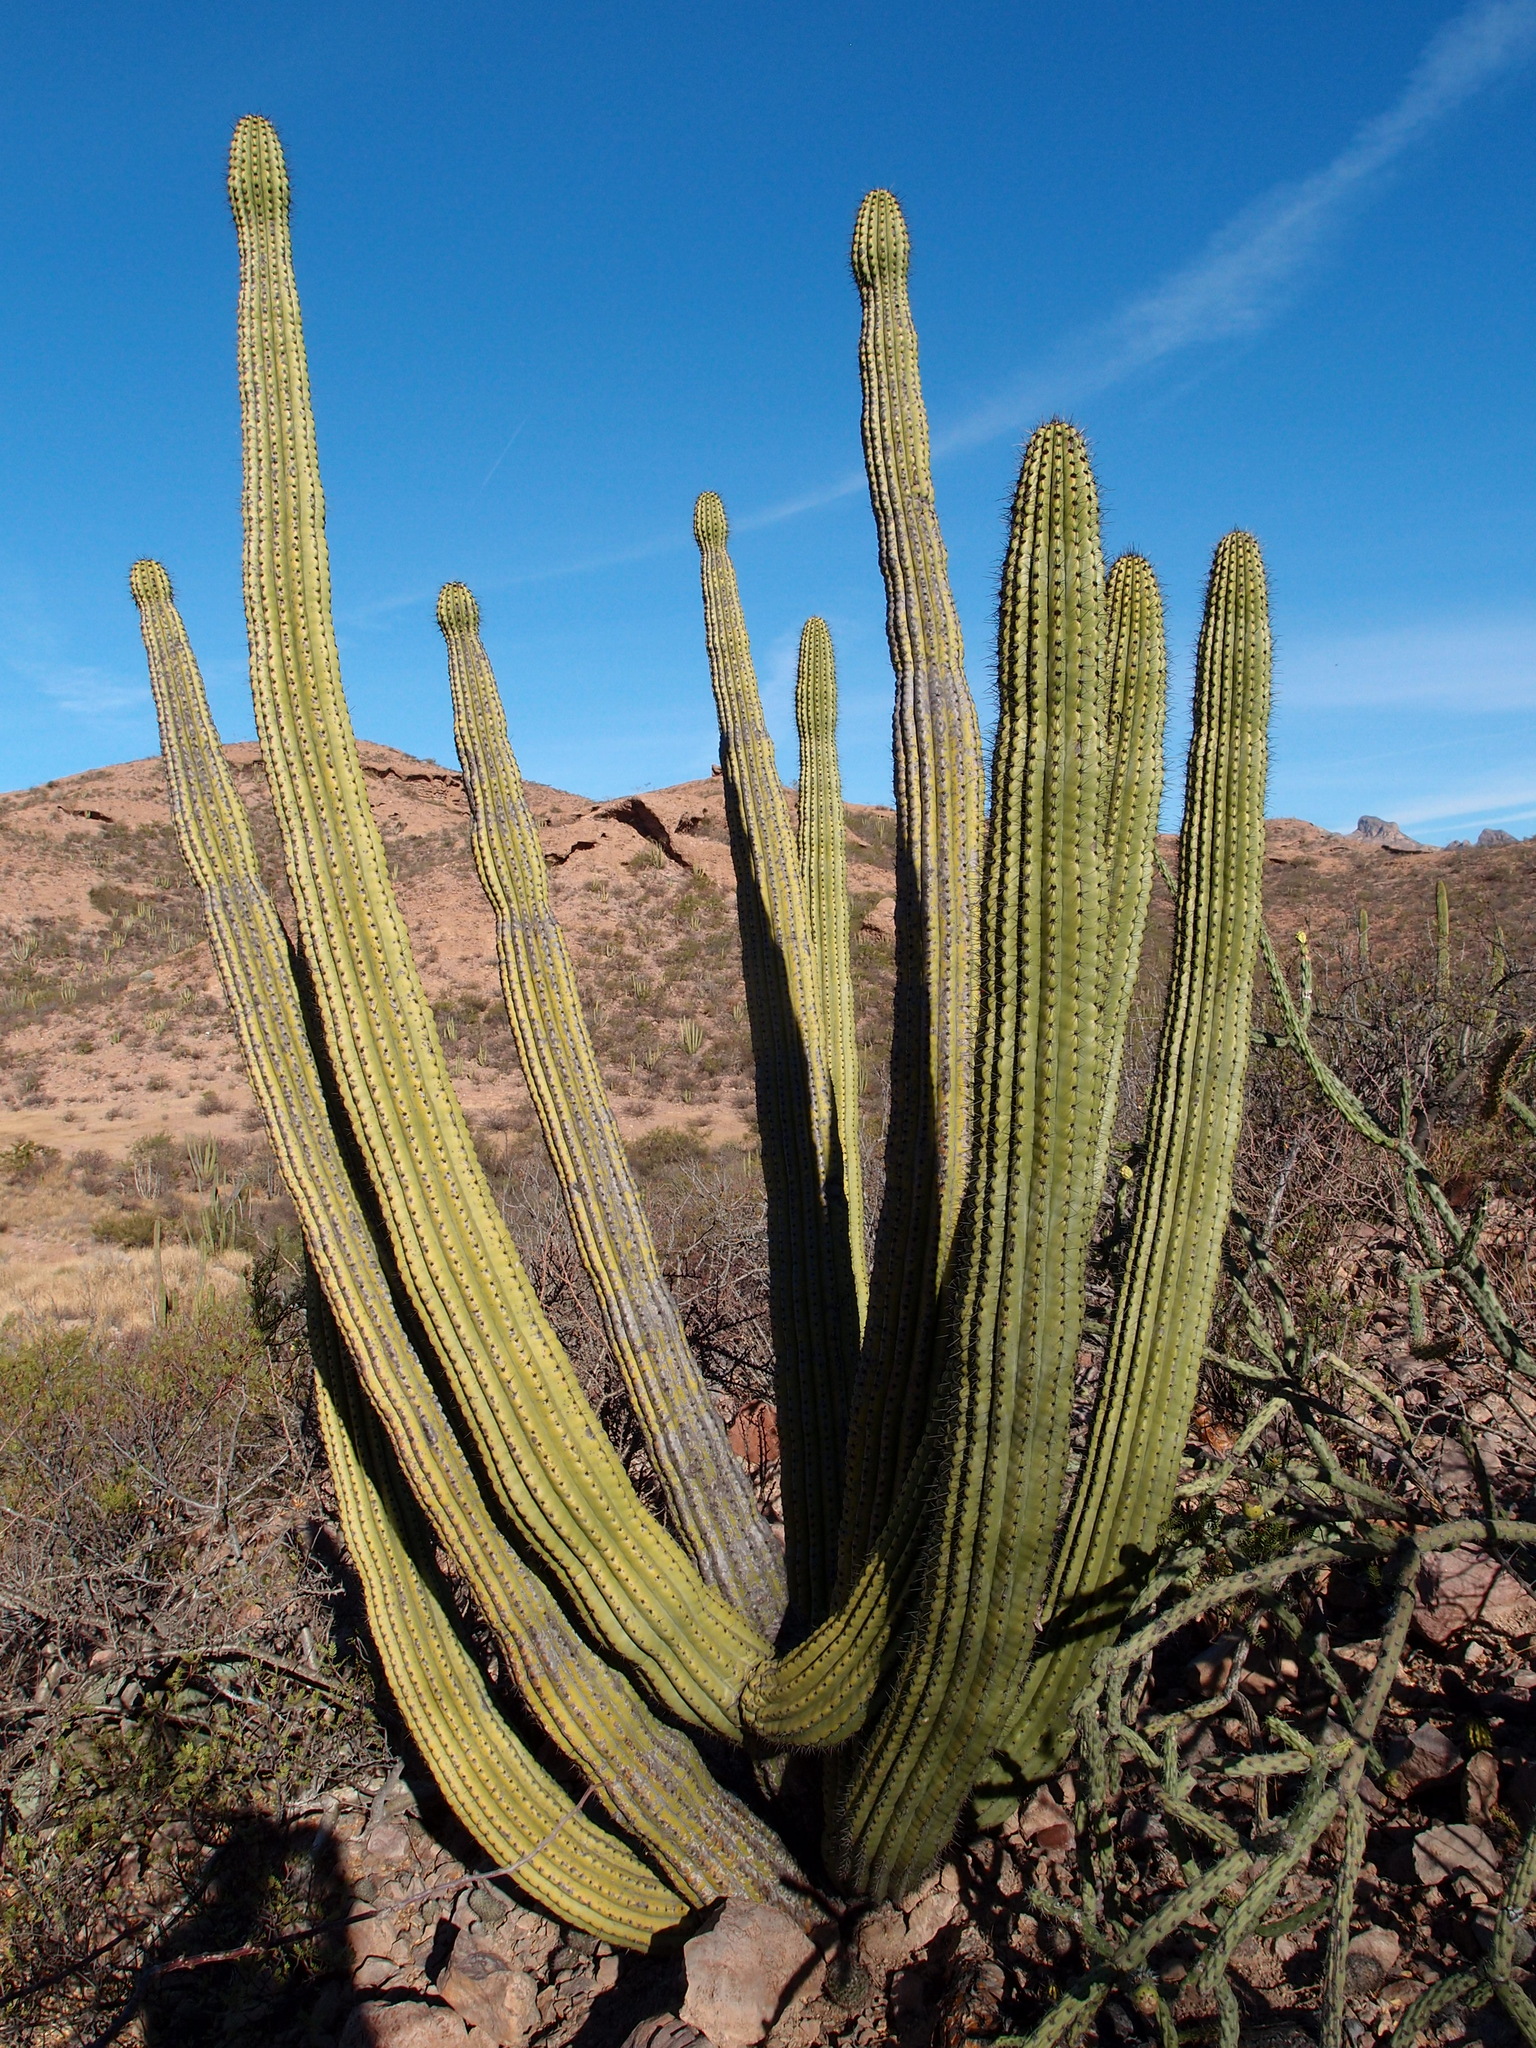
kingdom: Plantae
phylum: Tracheophyta
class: Magnoliopsida
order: Caryophyllales
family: Cactaceae
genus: Stenocereus
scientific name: Stenocereus thurberi
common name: Organ pipe cactus
